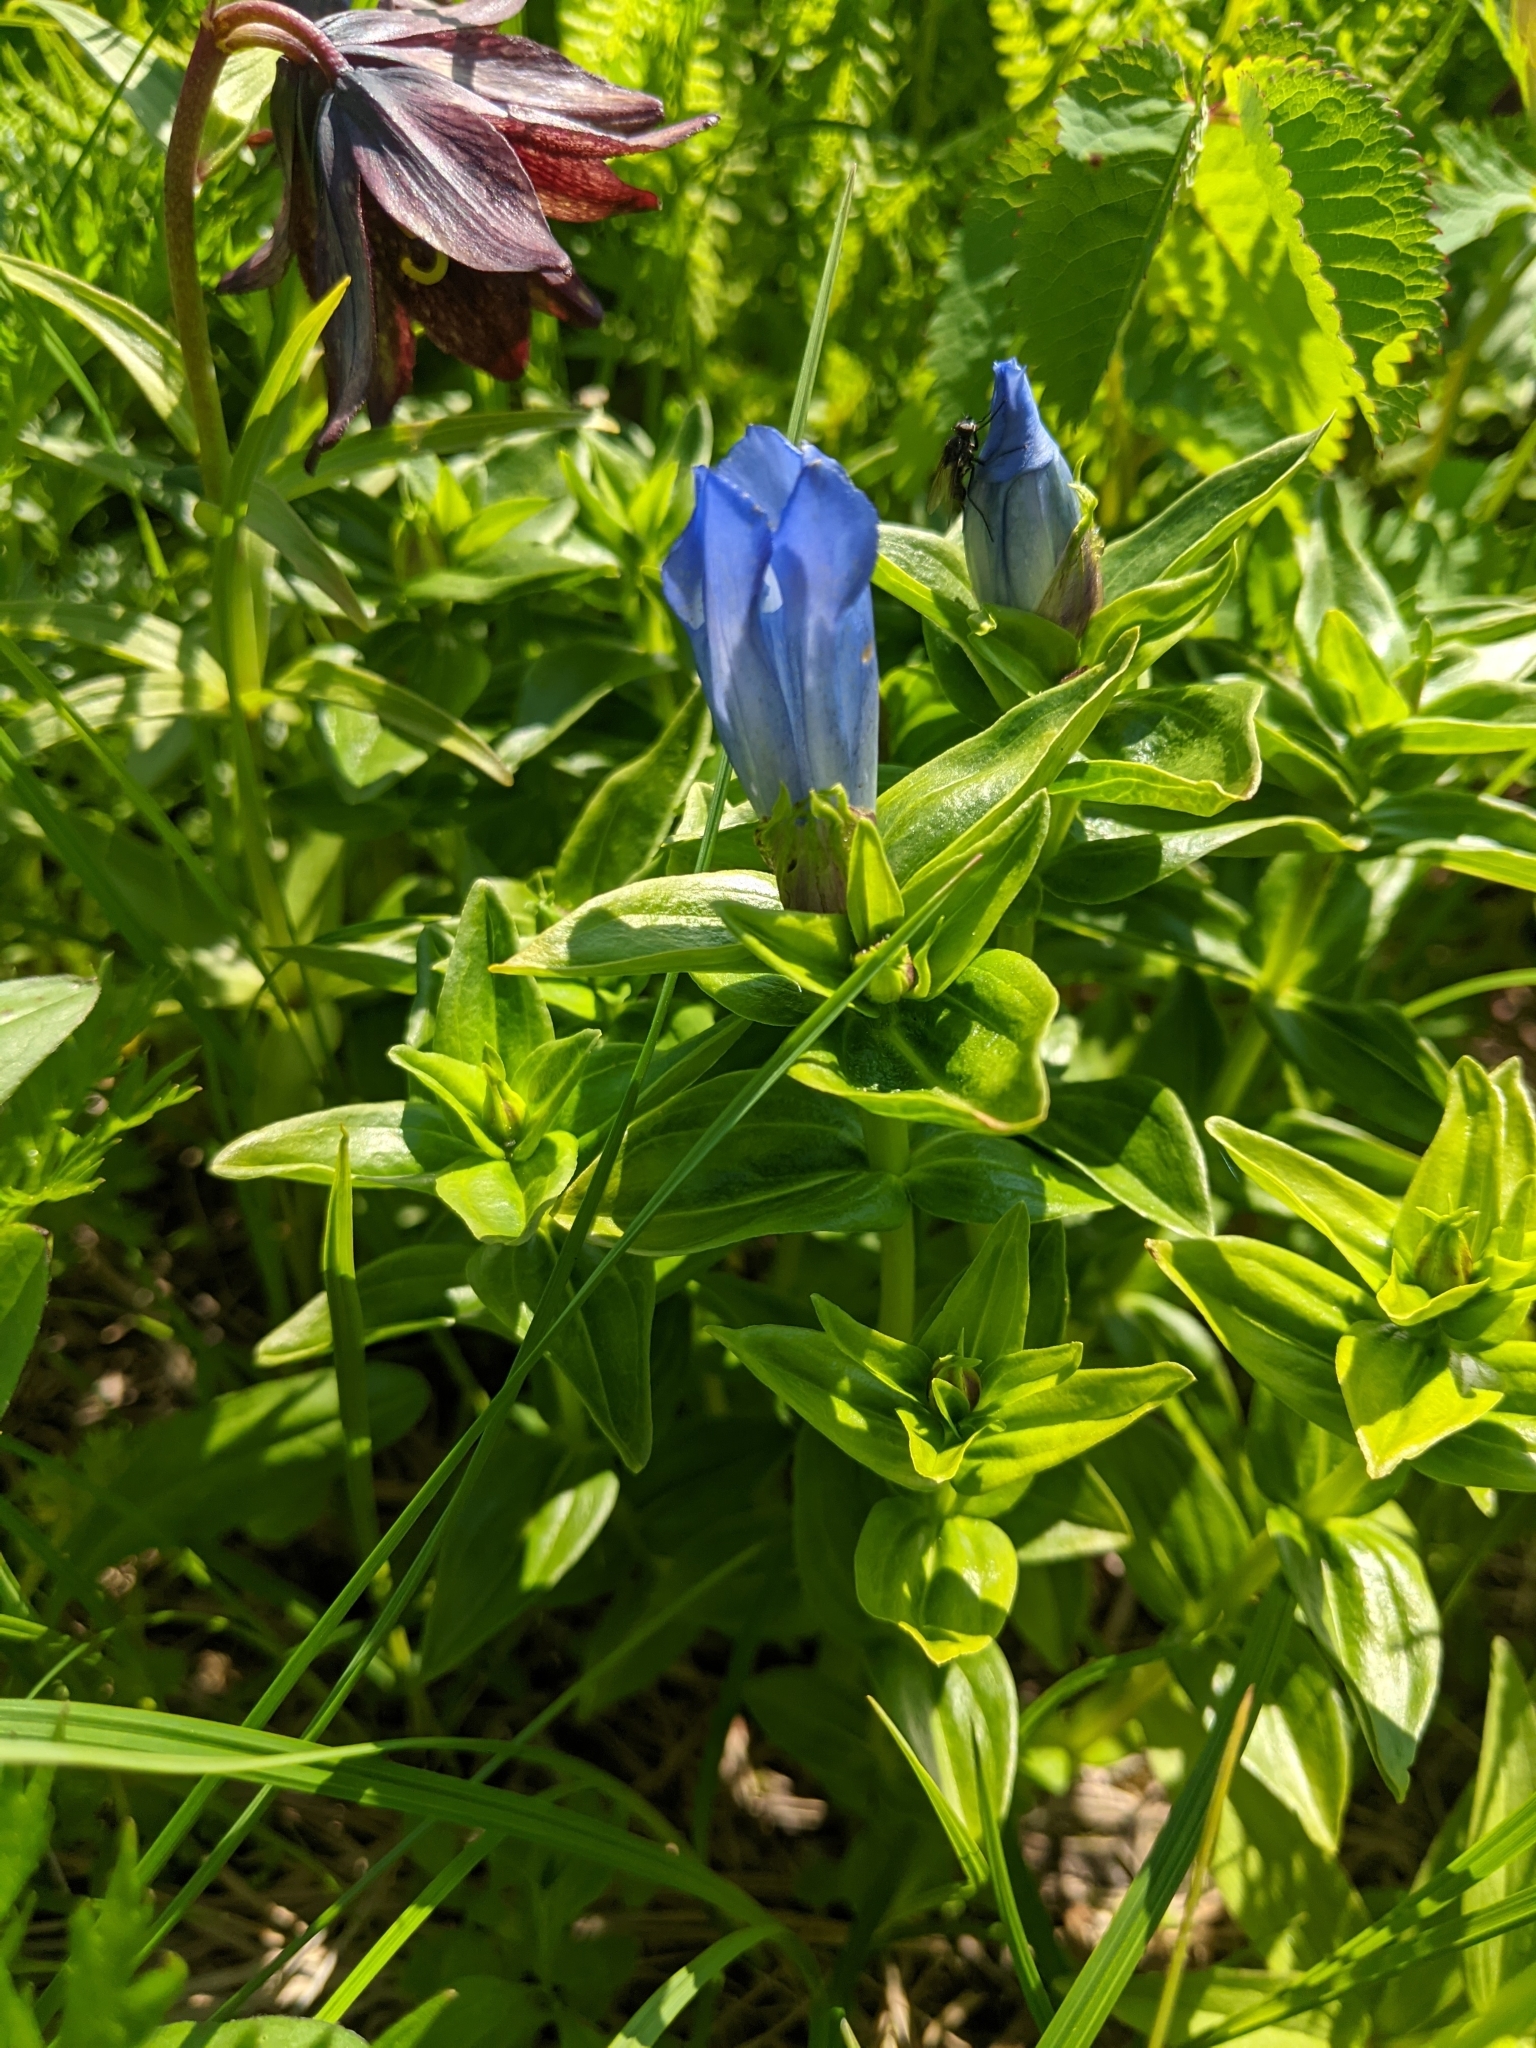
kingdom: Plantae
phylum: Tracheophyta
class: Magnoliopsida
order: Gentianales
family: Gentianaceae
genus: Gentiana
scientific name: Gentiana platypetala
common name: Broad-petalled gentian
